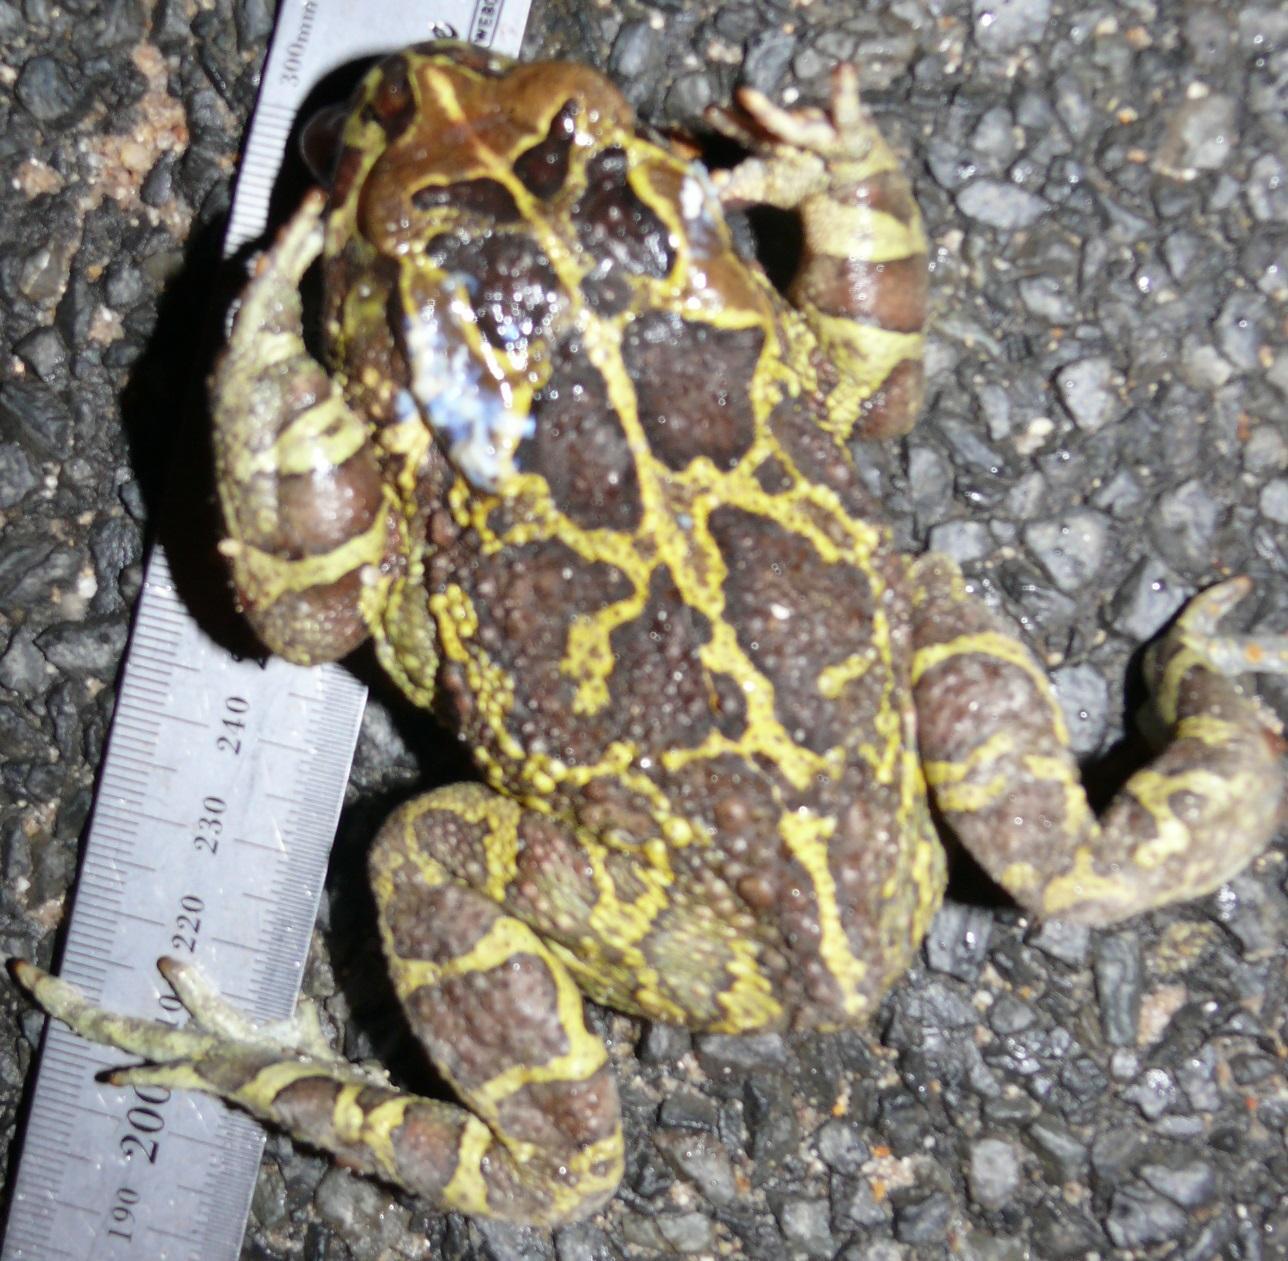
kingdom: Animalia
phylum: Chordata
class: Amphibia
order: Anura
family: Bufonidae
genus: Sclerophrys
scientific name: Sclerophrys pantherina
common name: Panther toad
